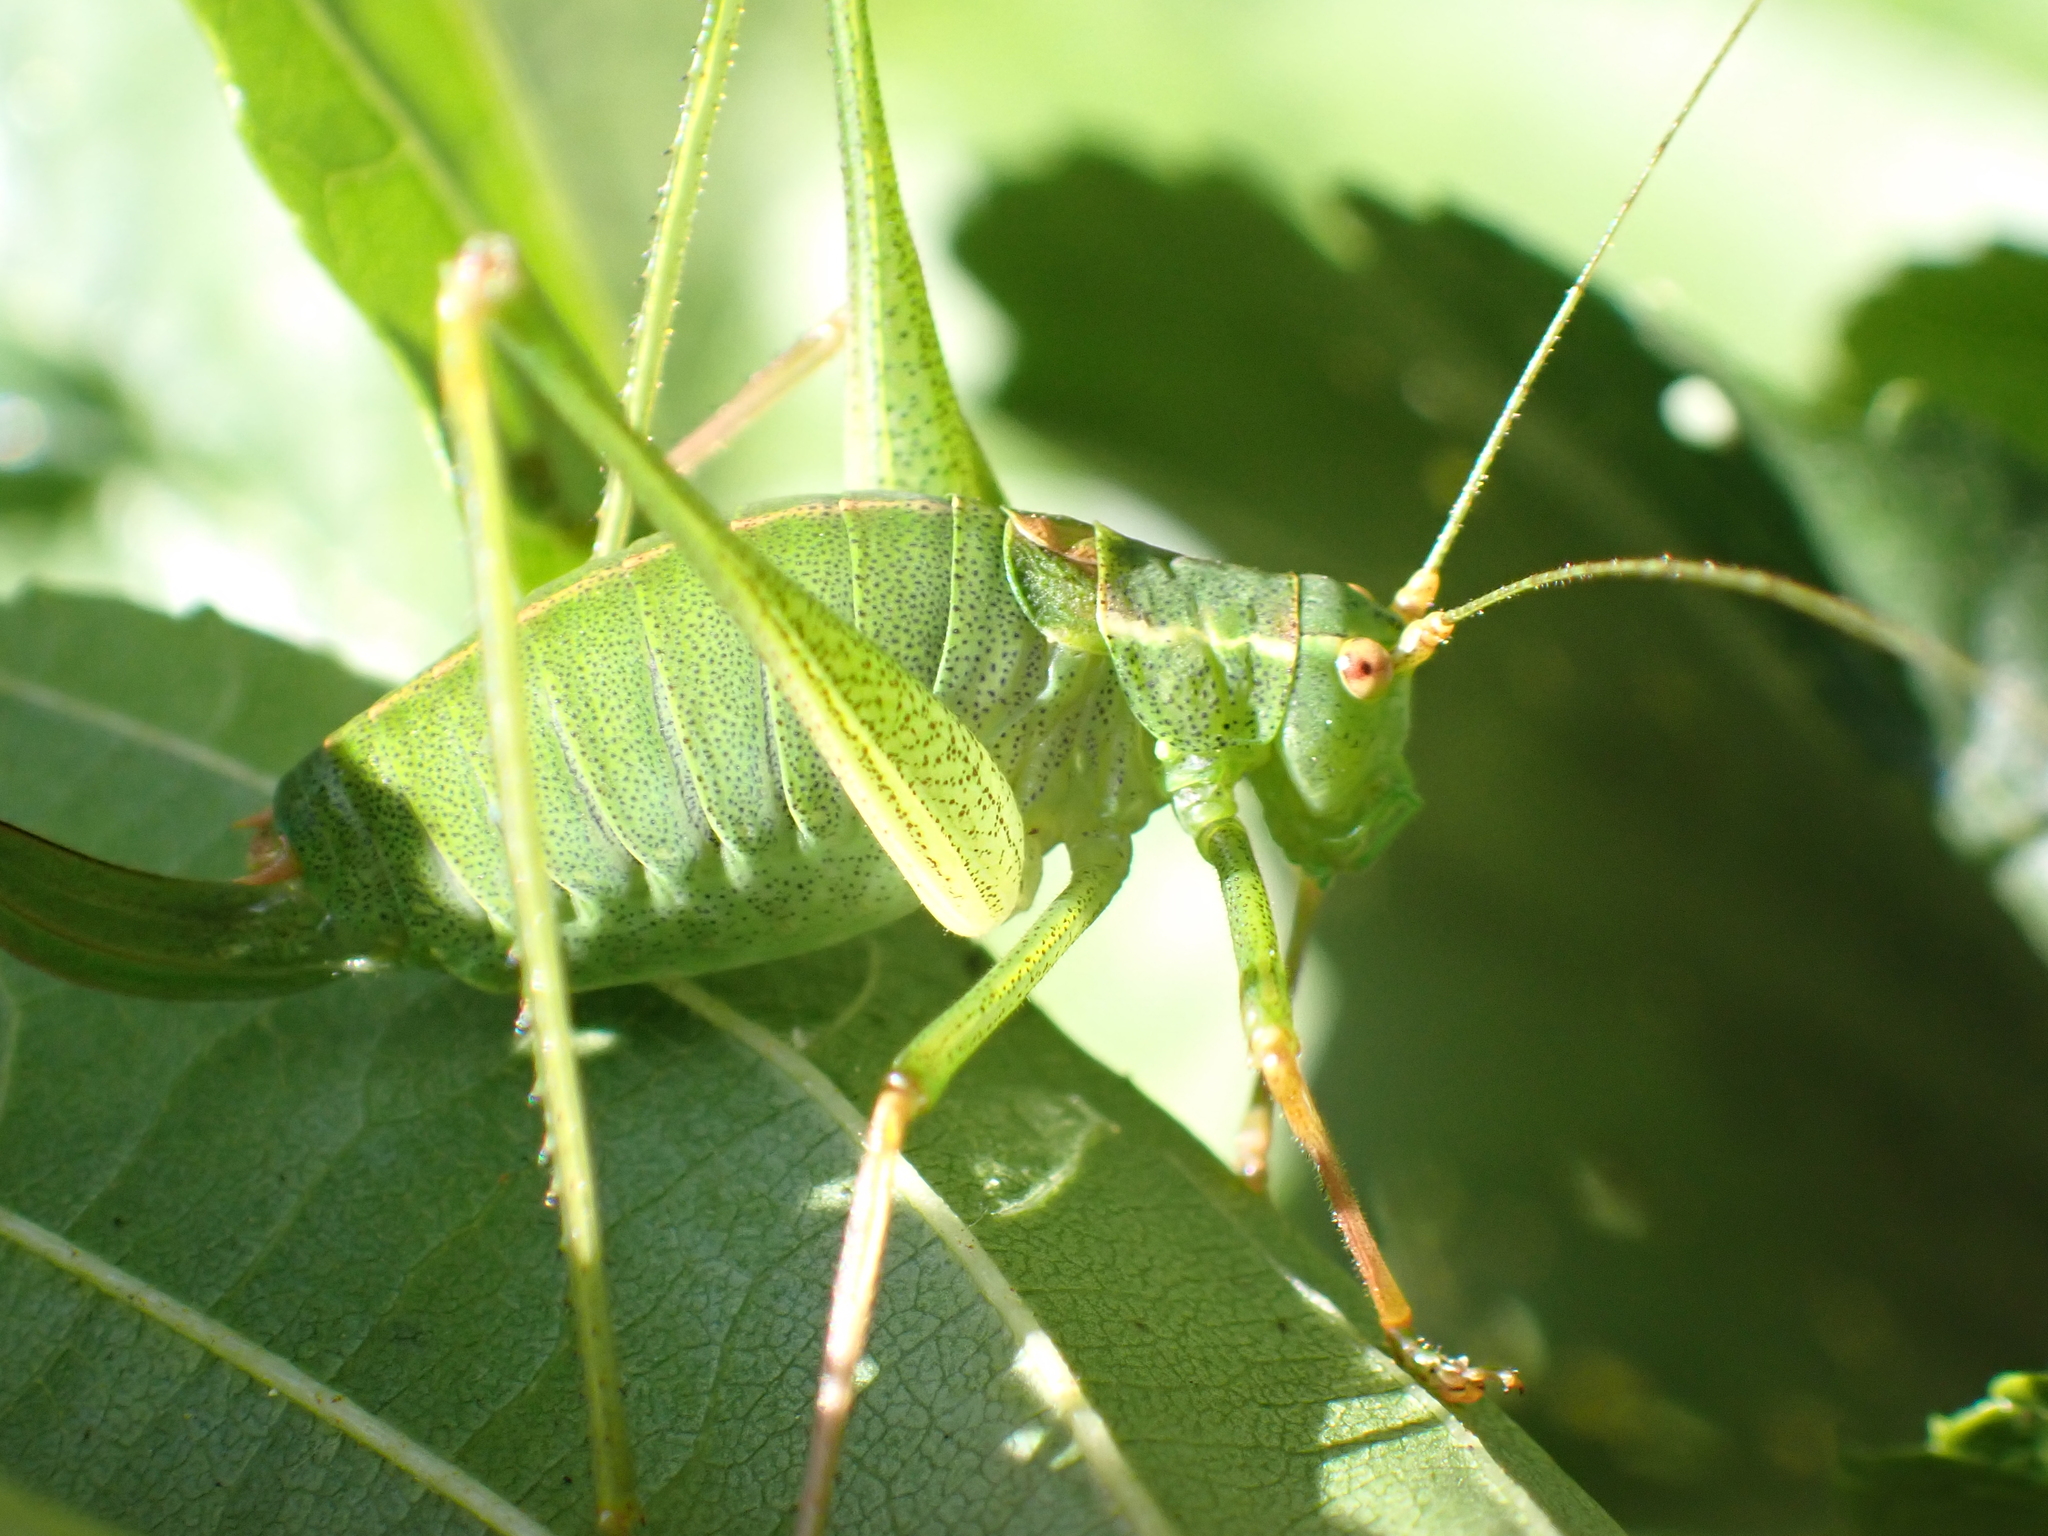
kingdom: Animalia
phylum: Arthropoda
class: Insecta
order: Orthoptera
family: Tettigoniidae
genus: Leptophyes
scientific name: Leptophyes punctatissima
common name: Speckled bush-cricket
